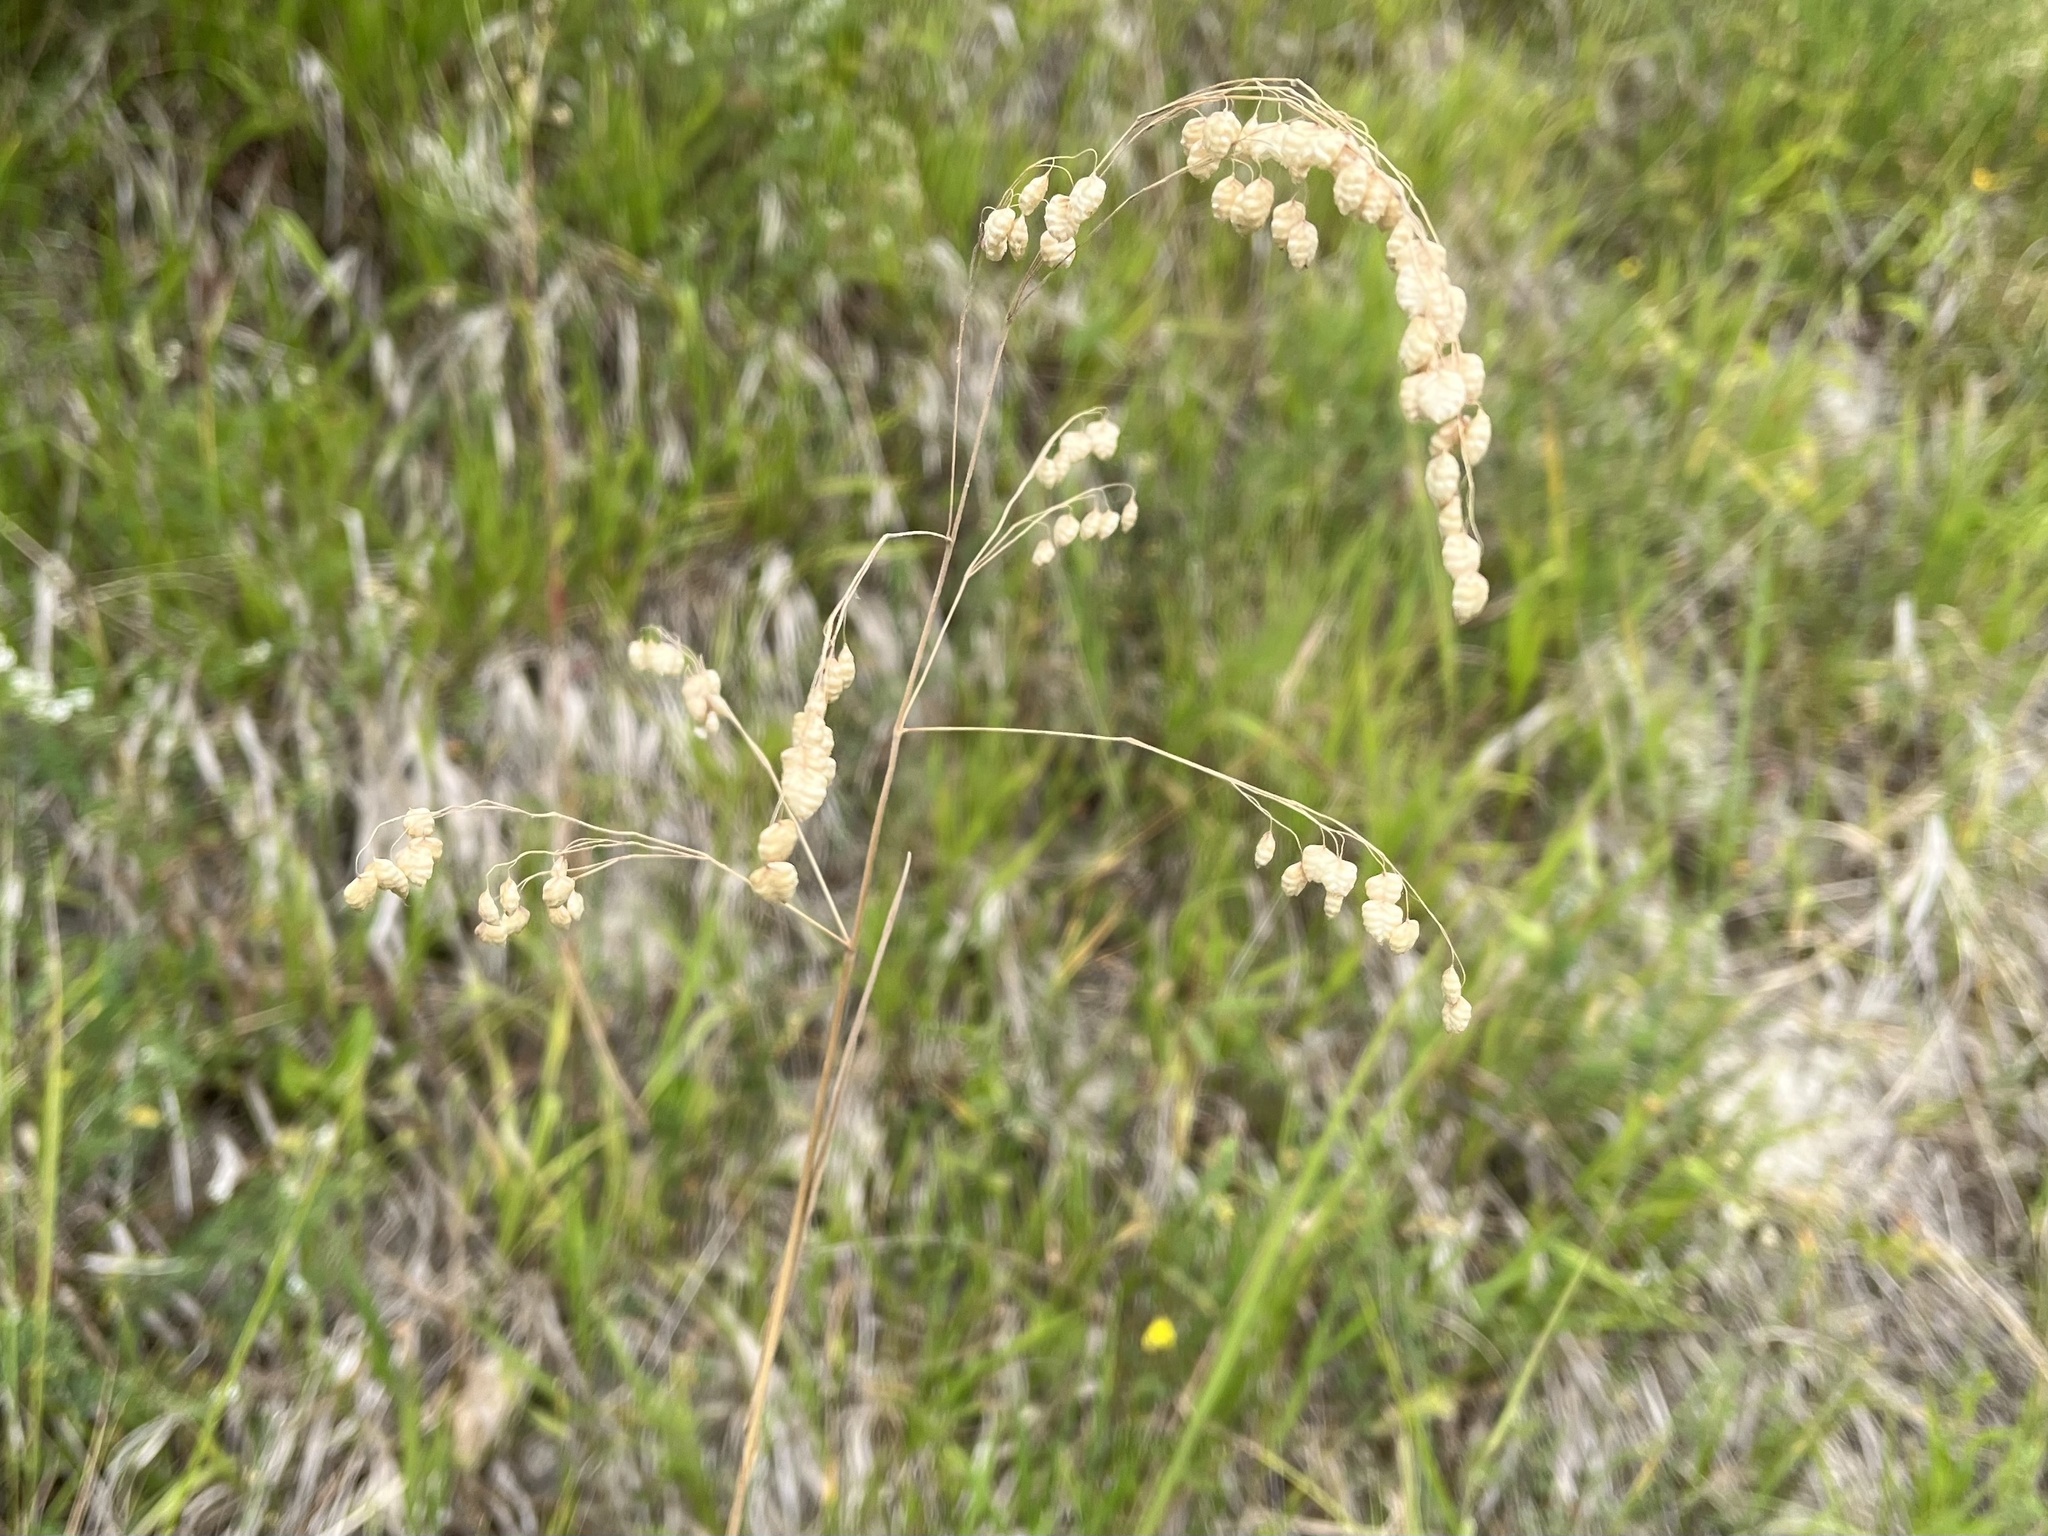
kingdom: Plantae
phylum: Tracheophyta
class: Liliopsida
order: Poales
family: Poaceae
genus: Briza
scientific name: Briza media
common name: Quaking grass
